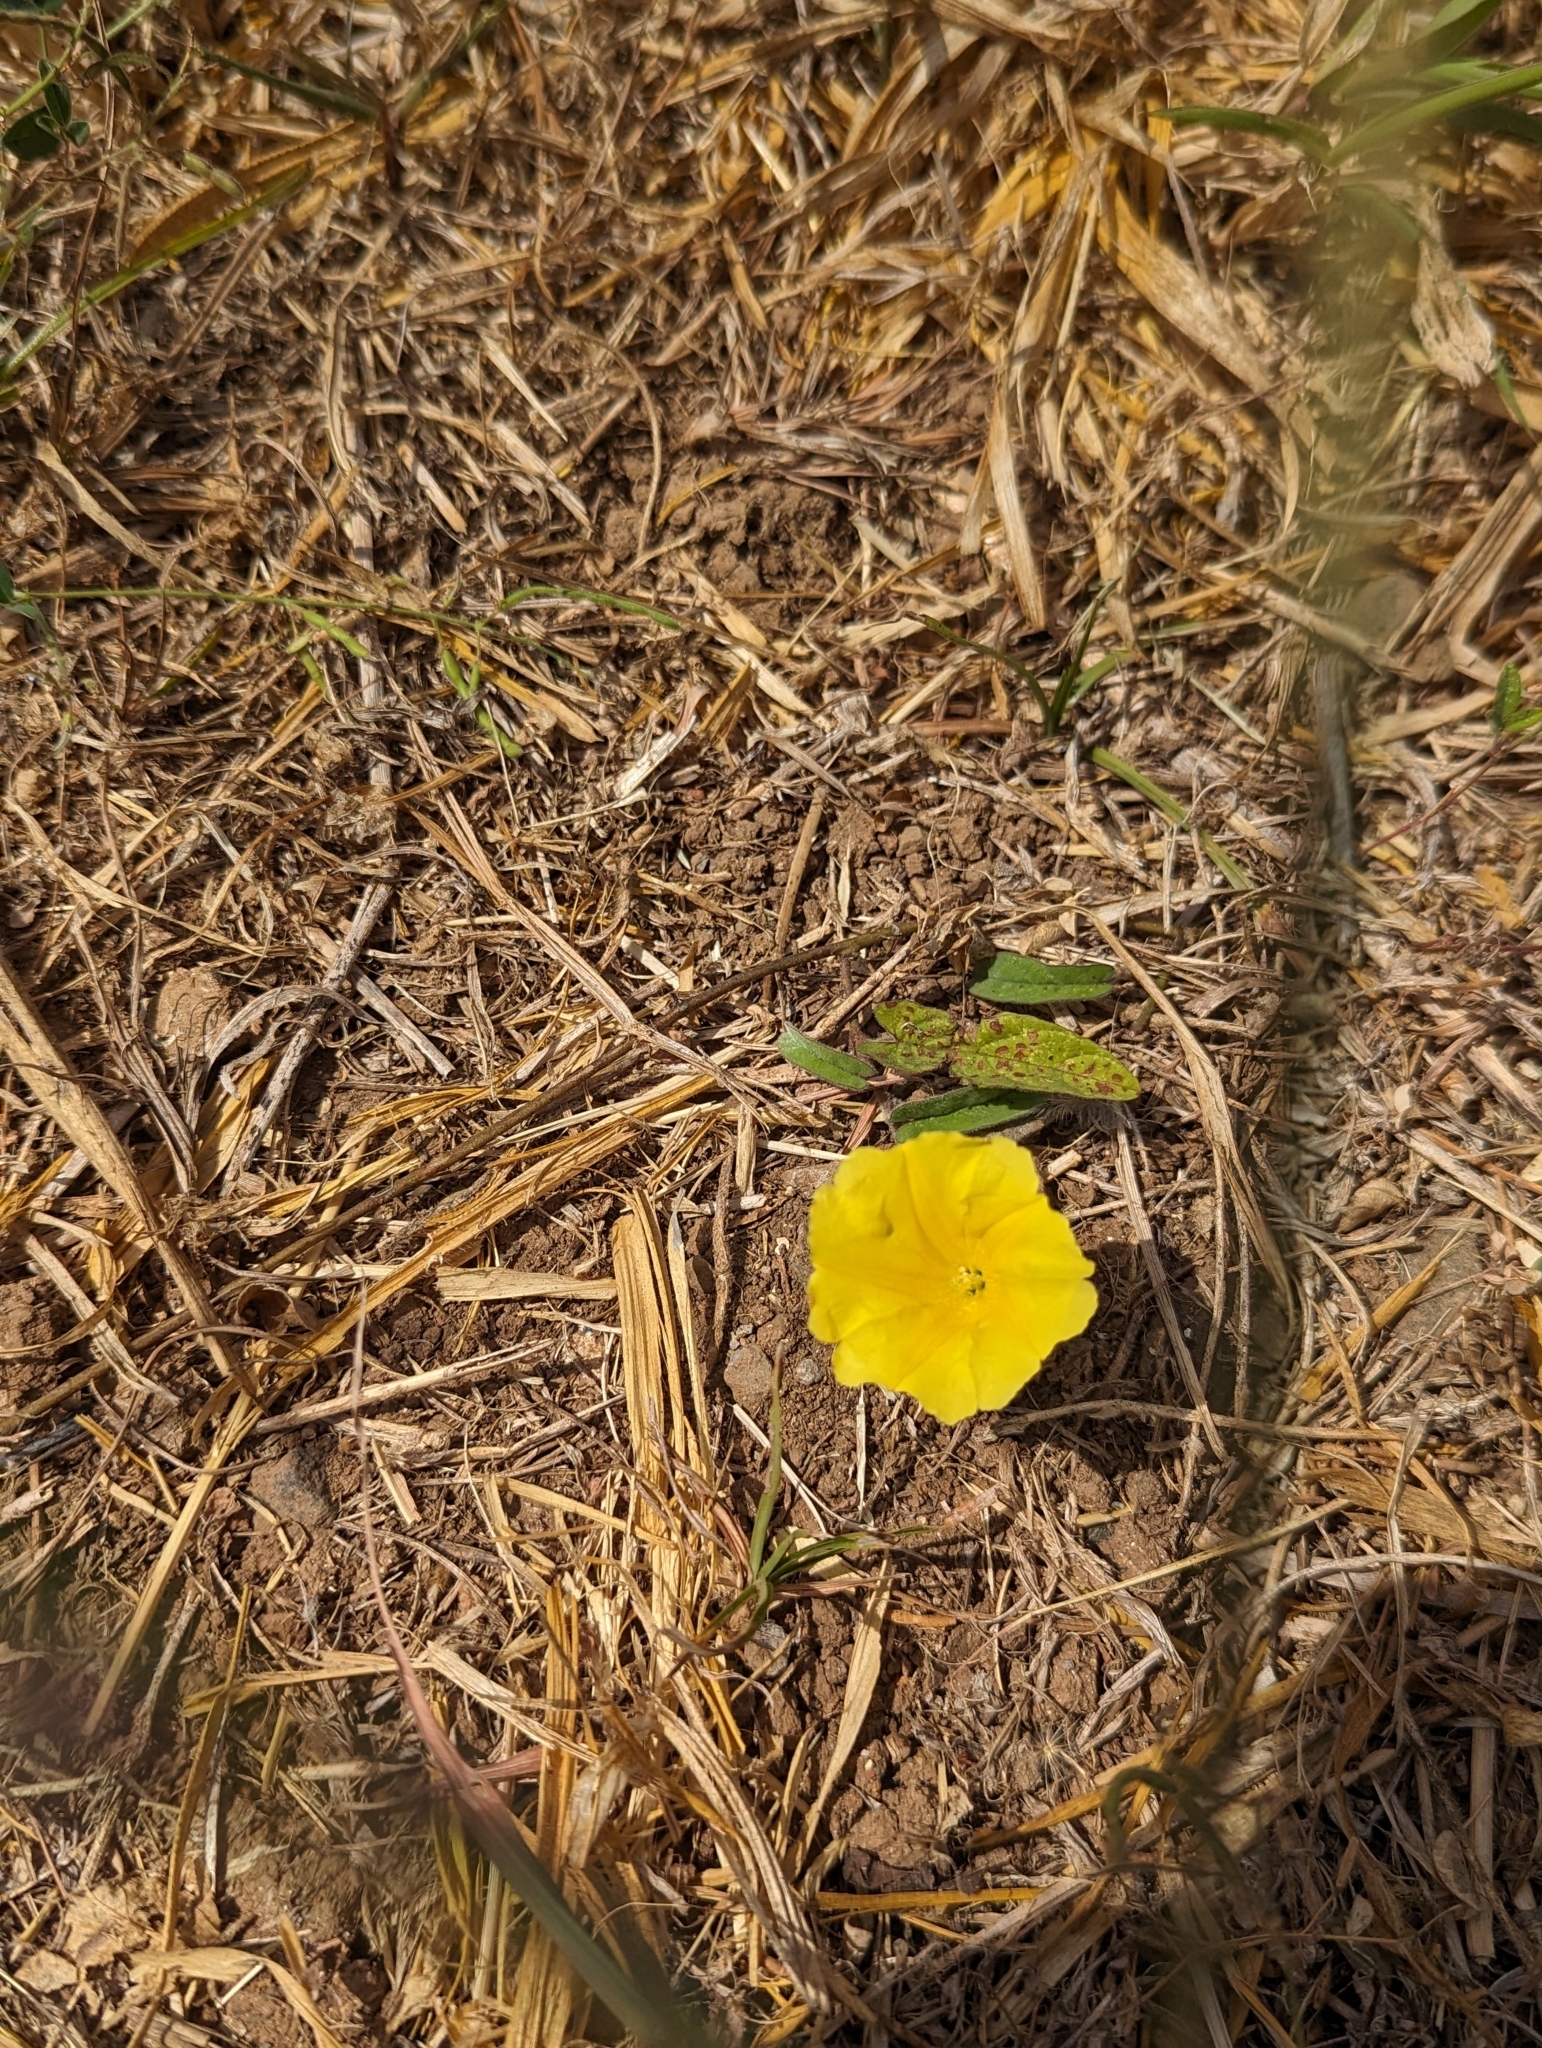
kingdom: Plantae
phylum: Tracheophyta
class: Magnoliopsida
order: Solanales
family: Convolvulaceae
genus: Camonea
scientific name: Camonea umbellata
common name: Hogvine
